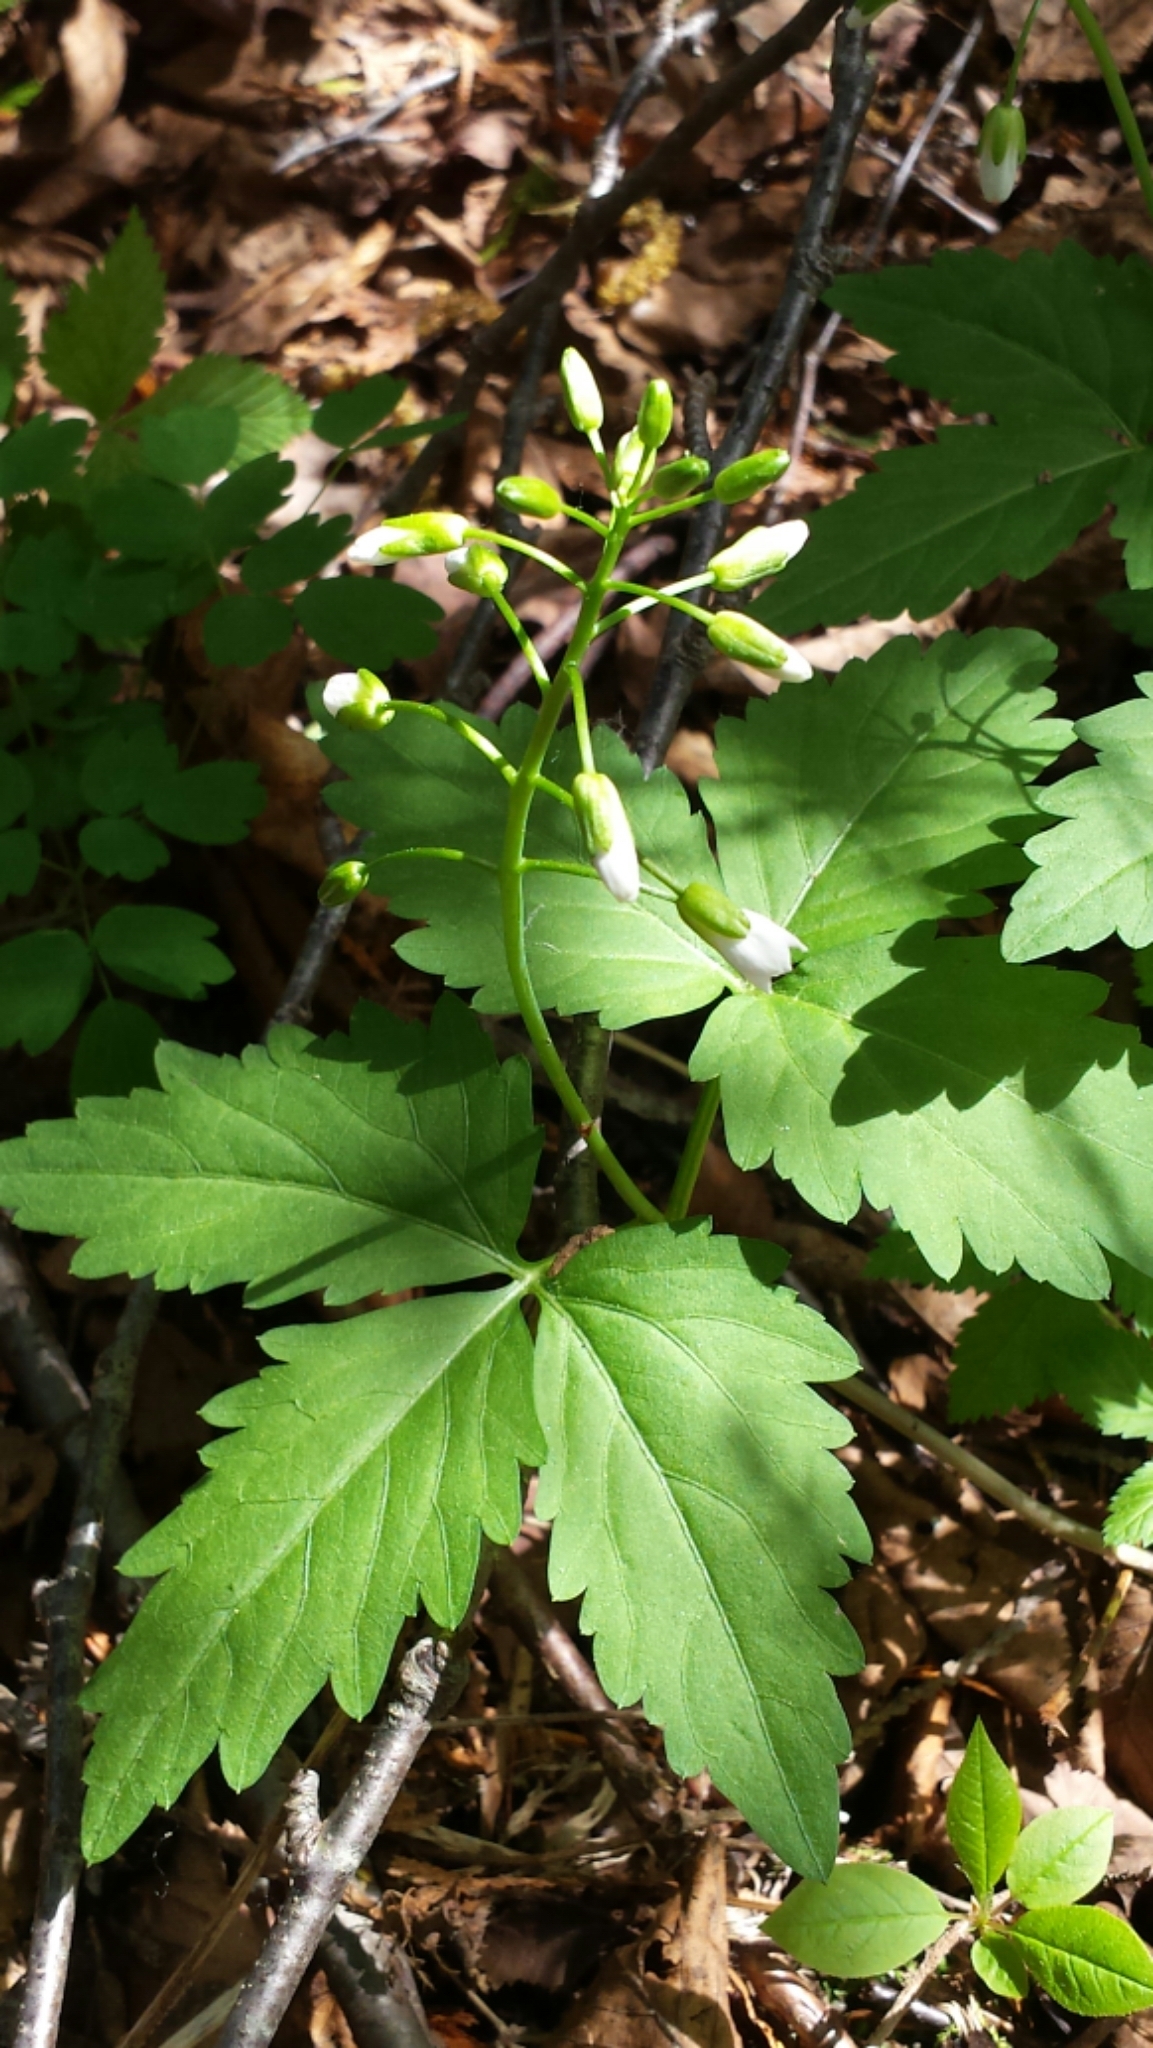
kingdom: Plantae
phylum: Tracheophyta
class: Magnoliopsida
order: Brassicales
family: Brassicaceae
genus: Cardamine
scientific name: Cardamine diphylla
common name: Broad-leaved toothwort
